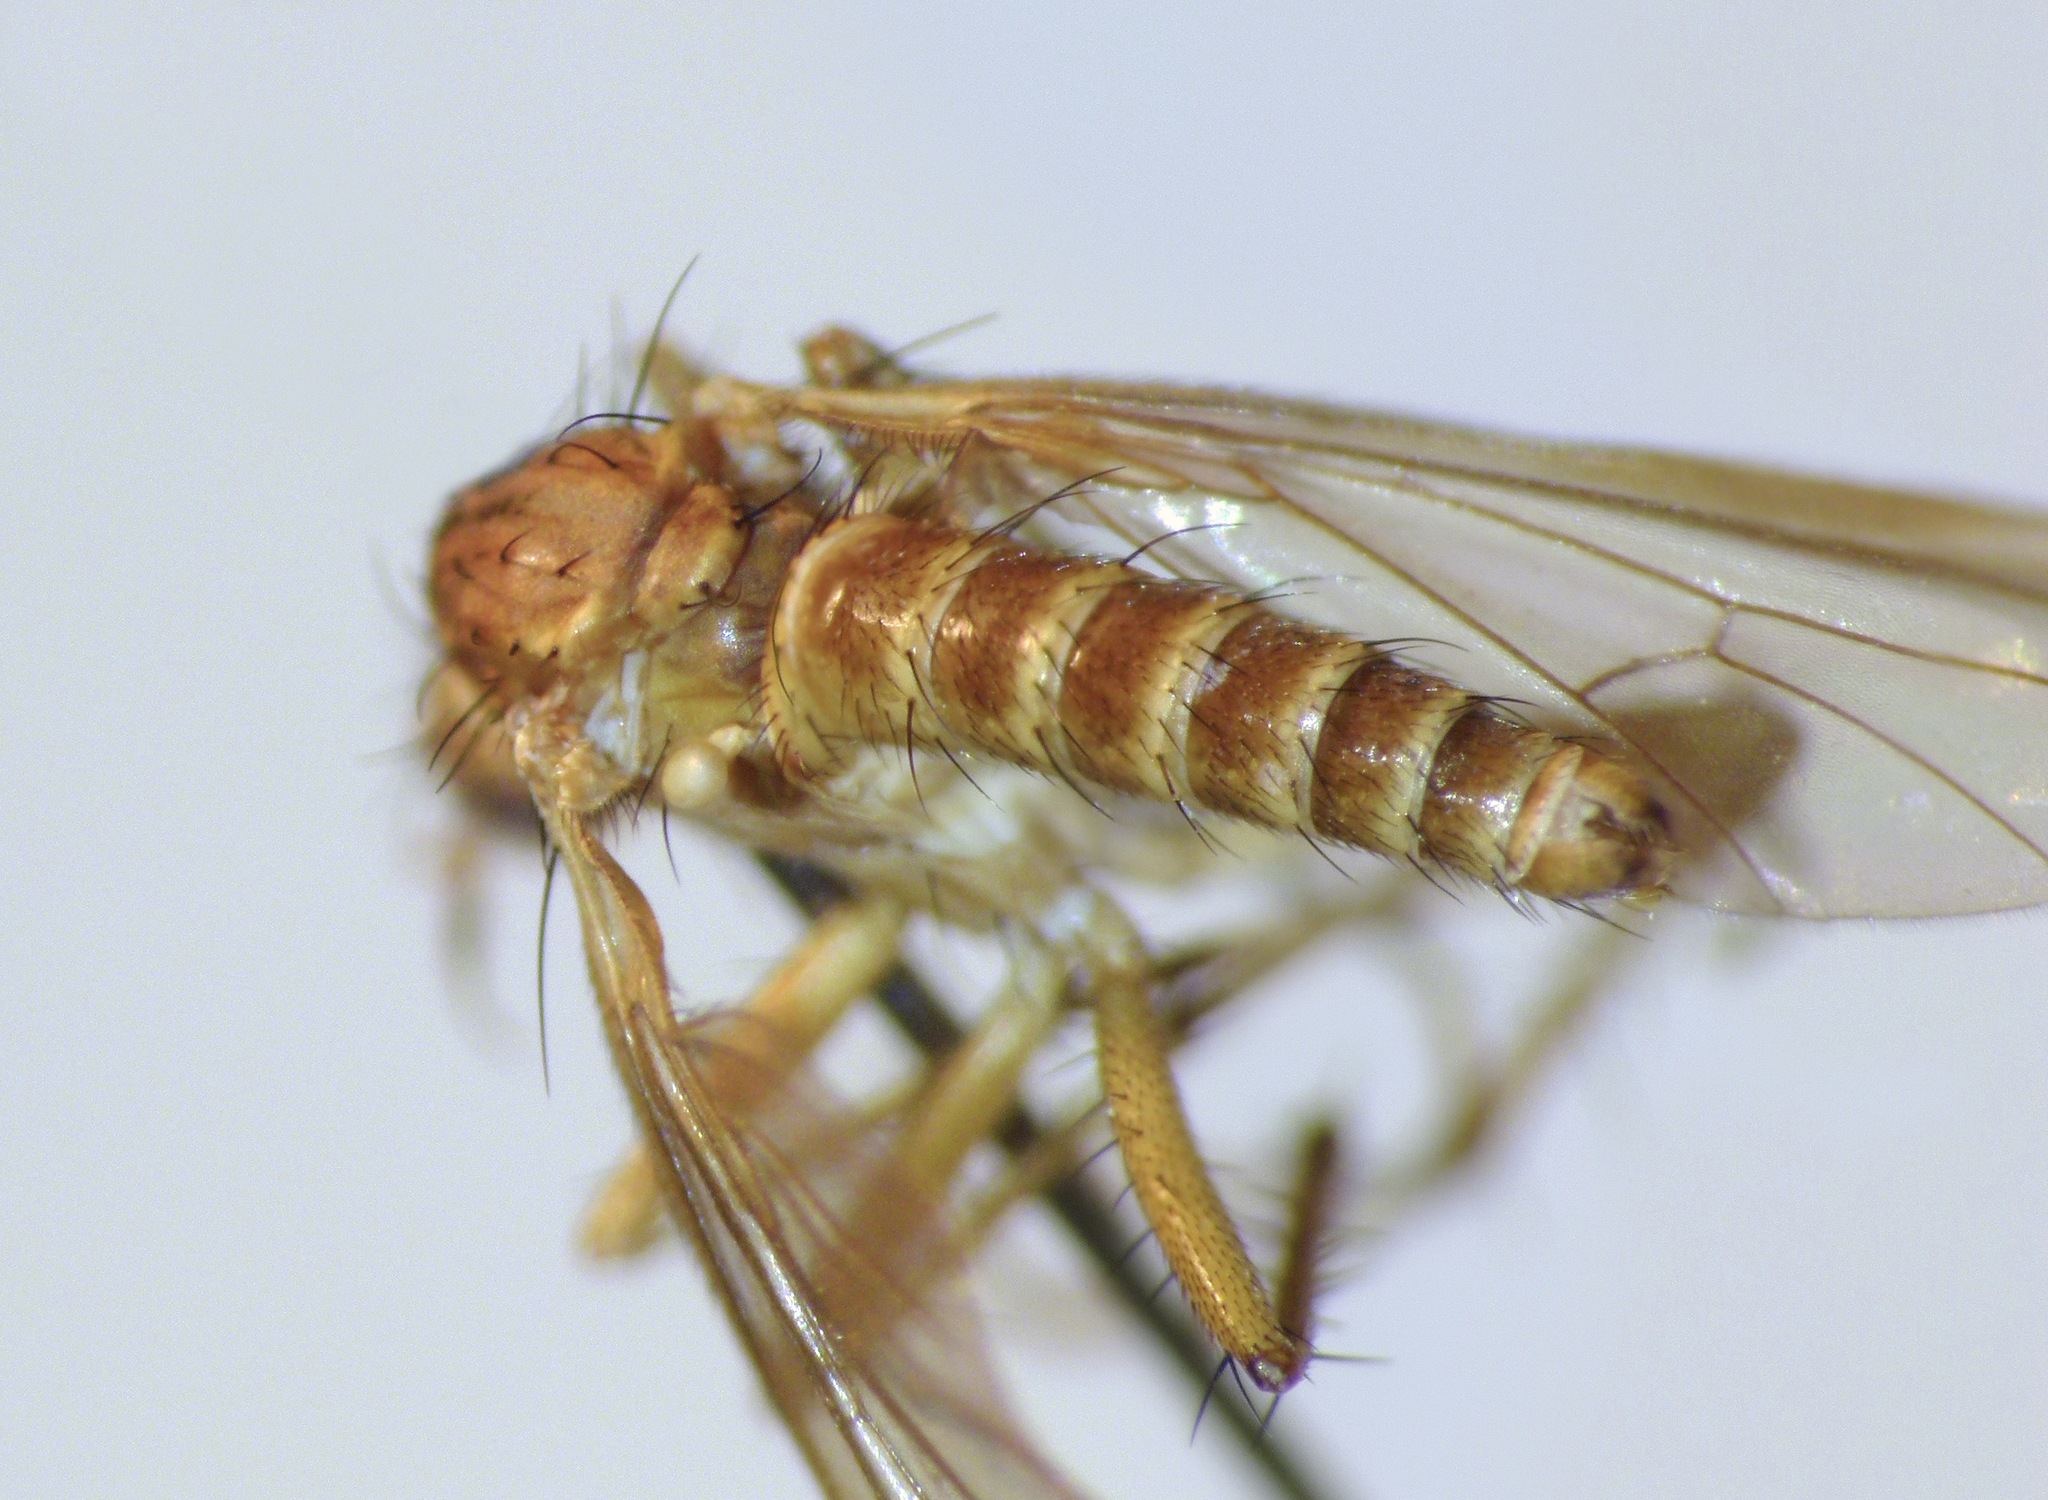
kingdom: Animalia
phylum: Arthropoda
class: Insecta
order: Diptera
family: Empididae
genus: Empidadelpha
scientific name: Empidadelpha torrentalis
